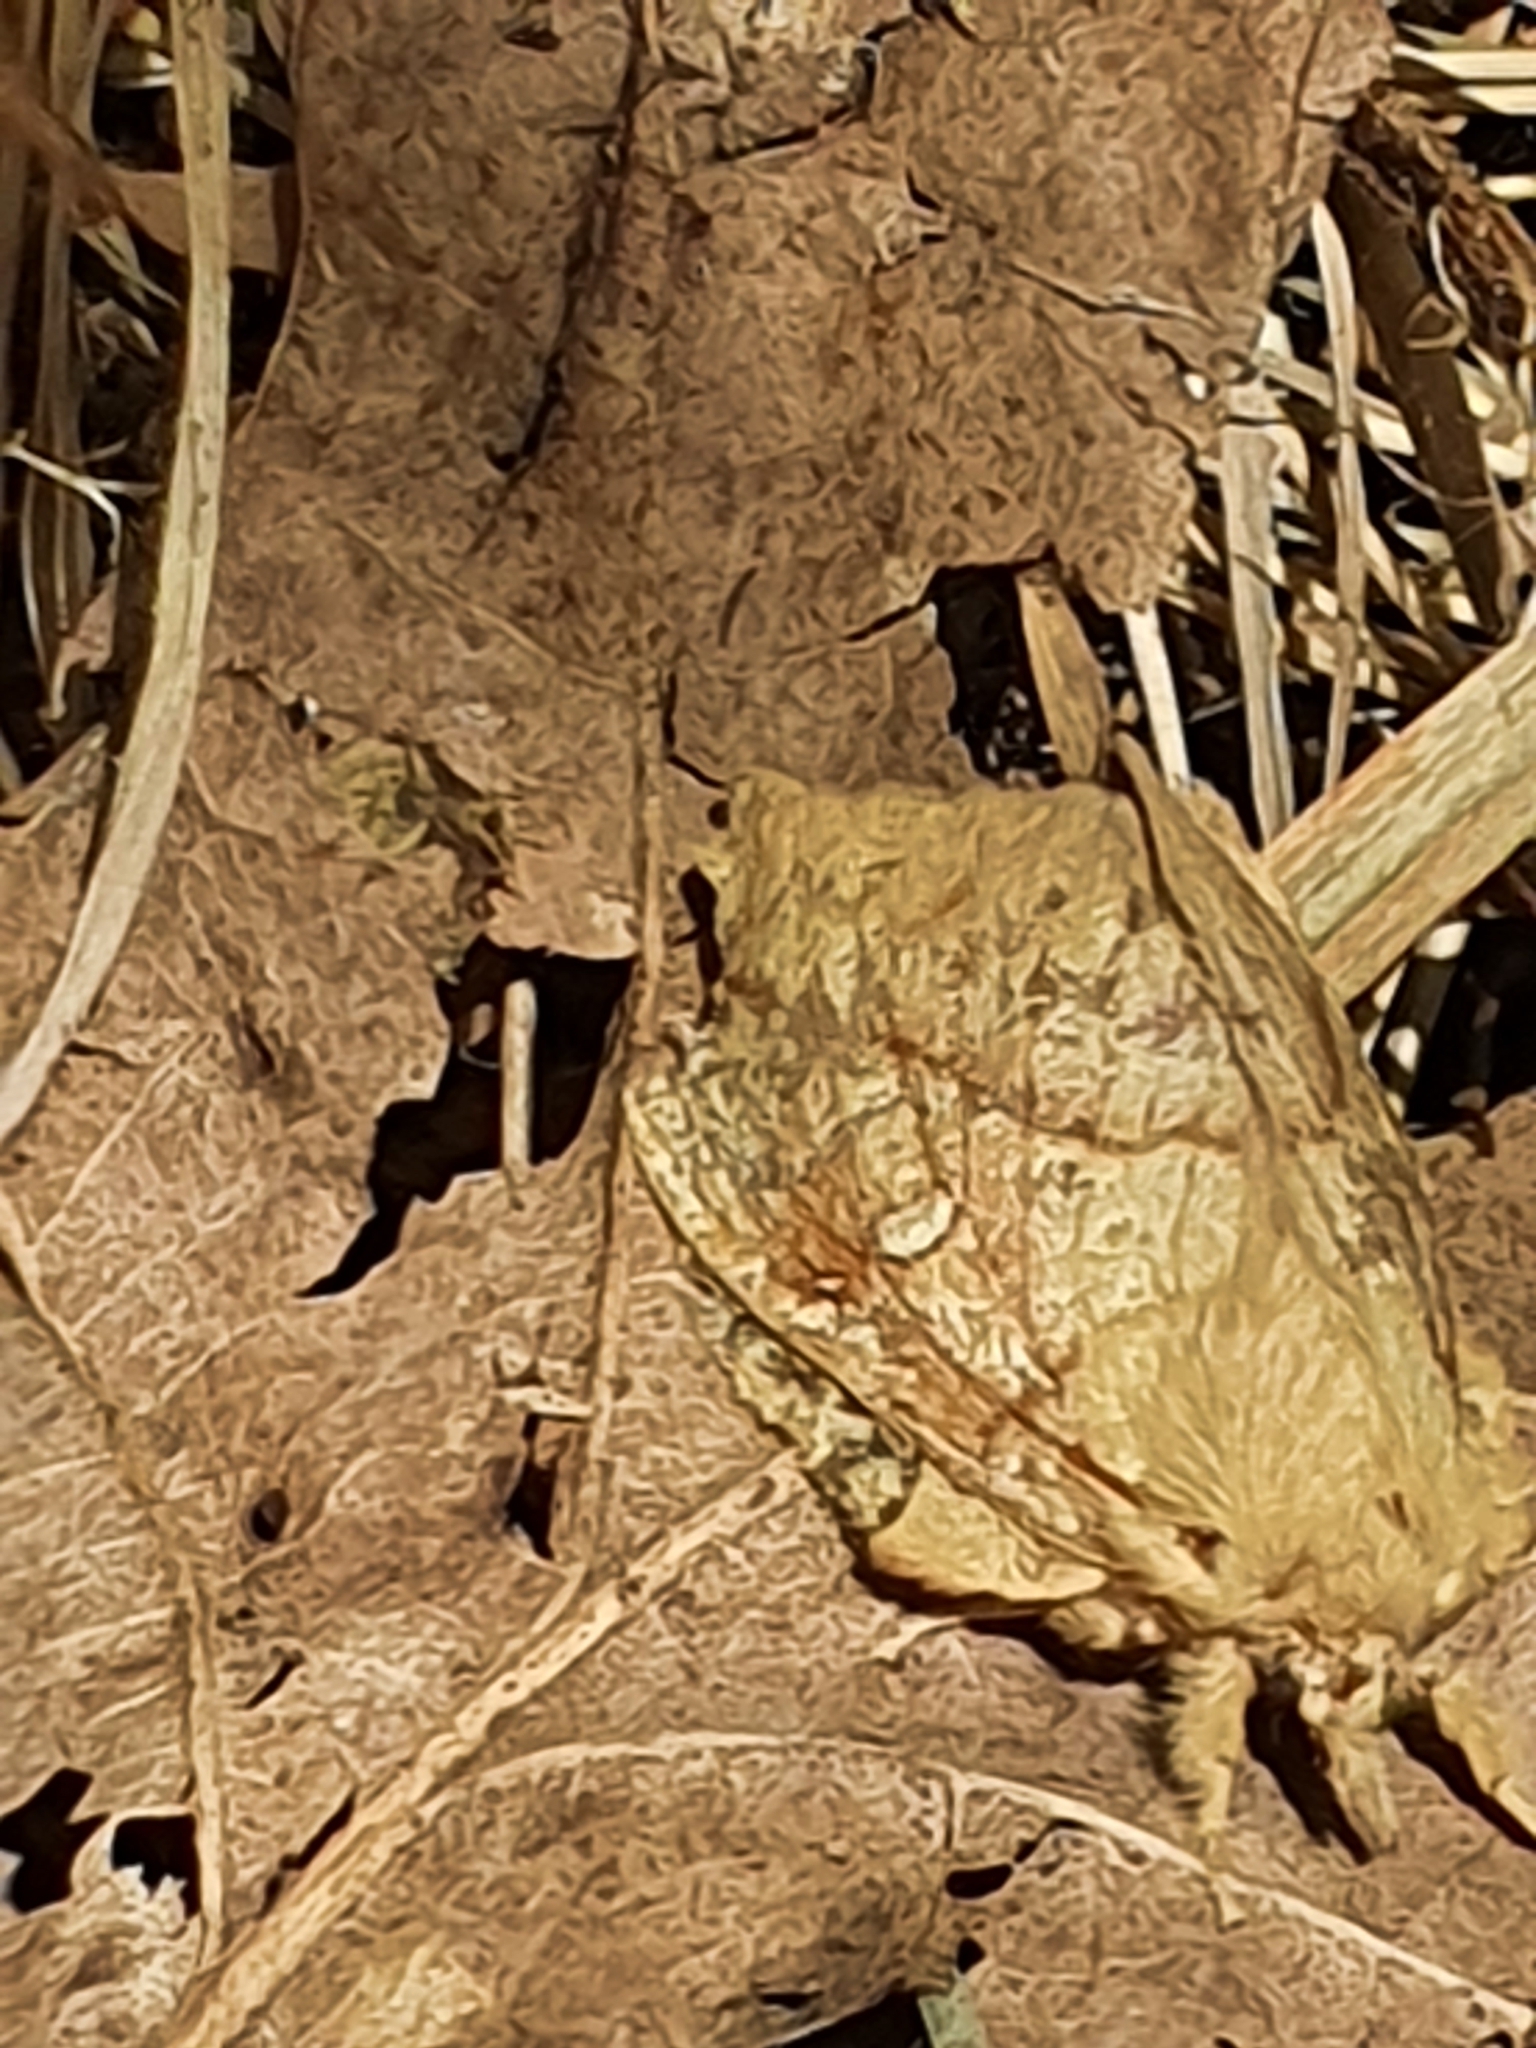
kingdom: Animalia
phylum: Arthropoda
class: Insecta
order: Lepidoptera
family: Lasiocampidae
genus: Euthrix
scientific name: Euthrix potatoria
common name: Drinker
